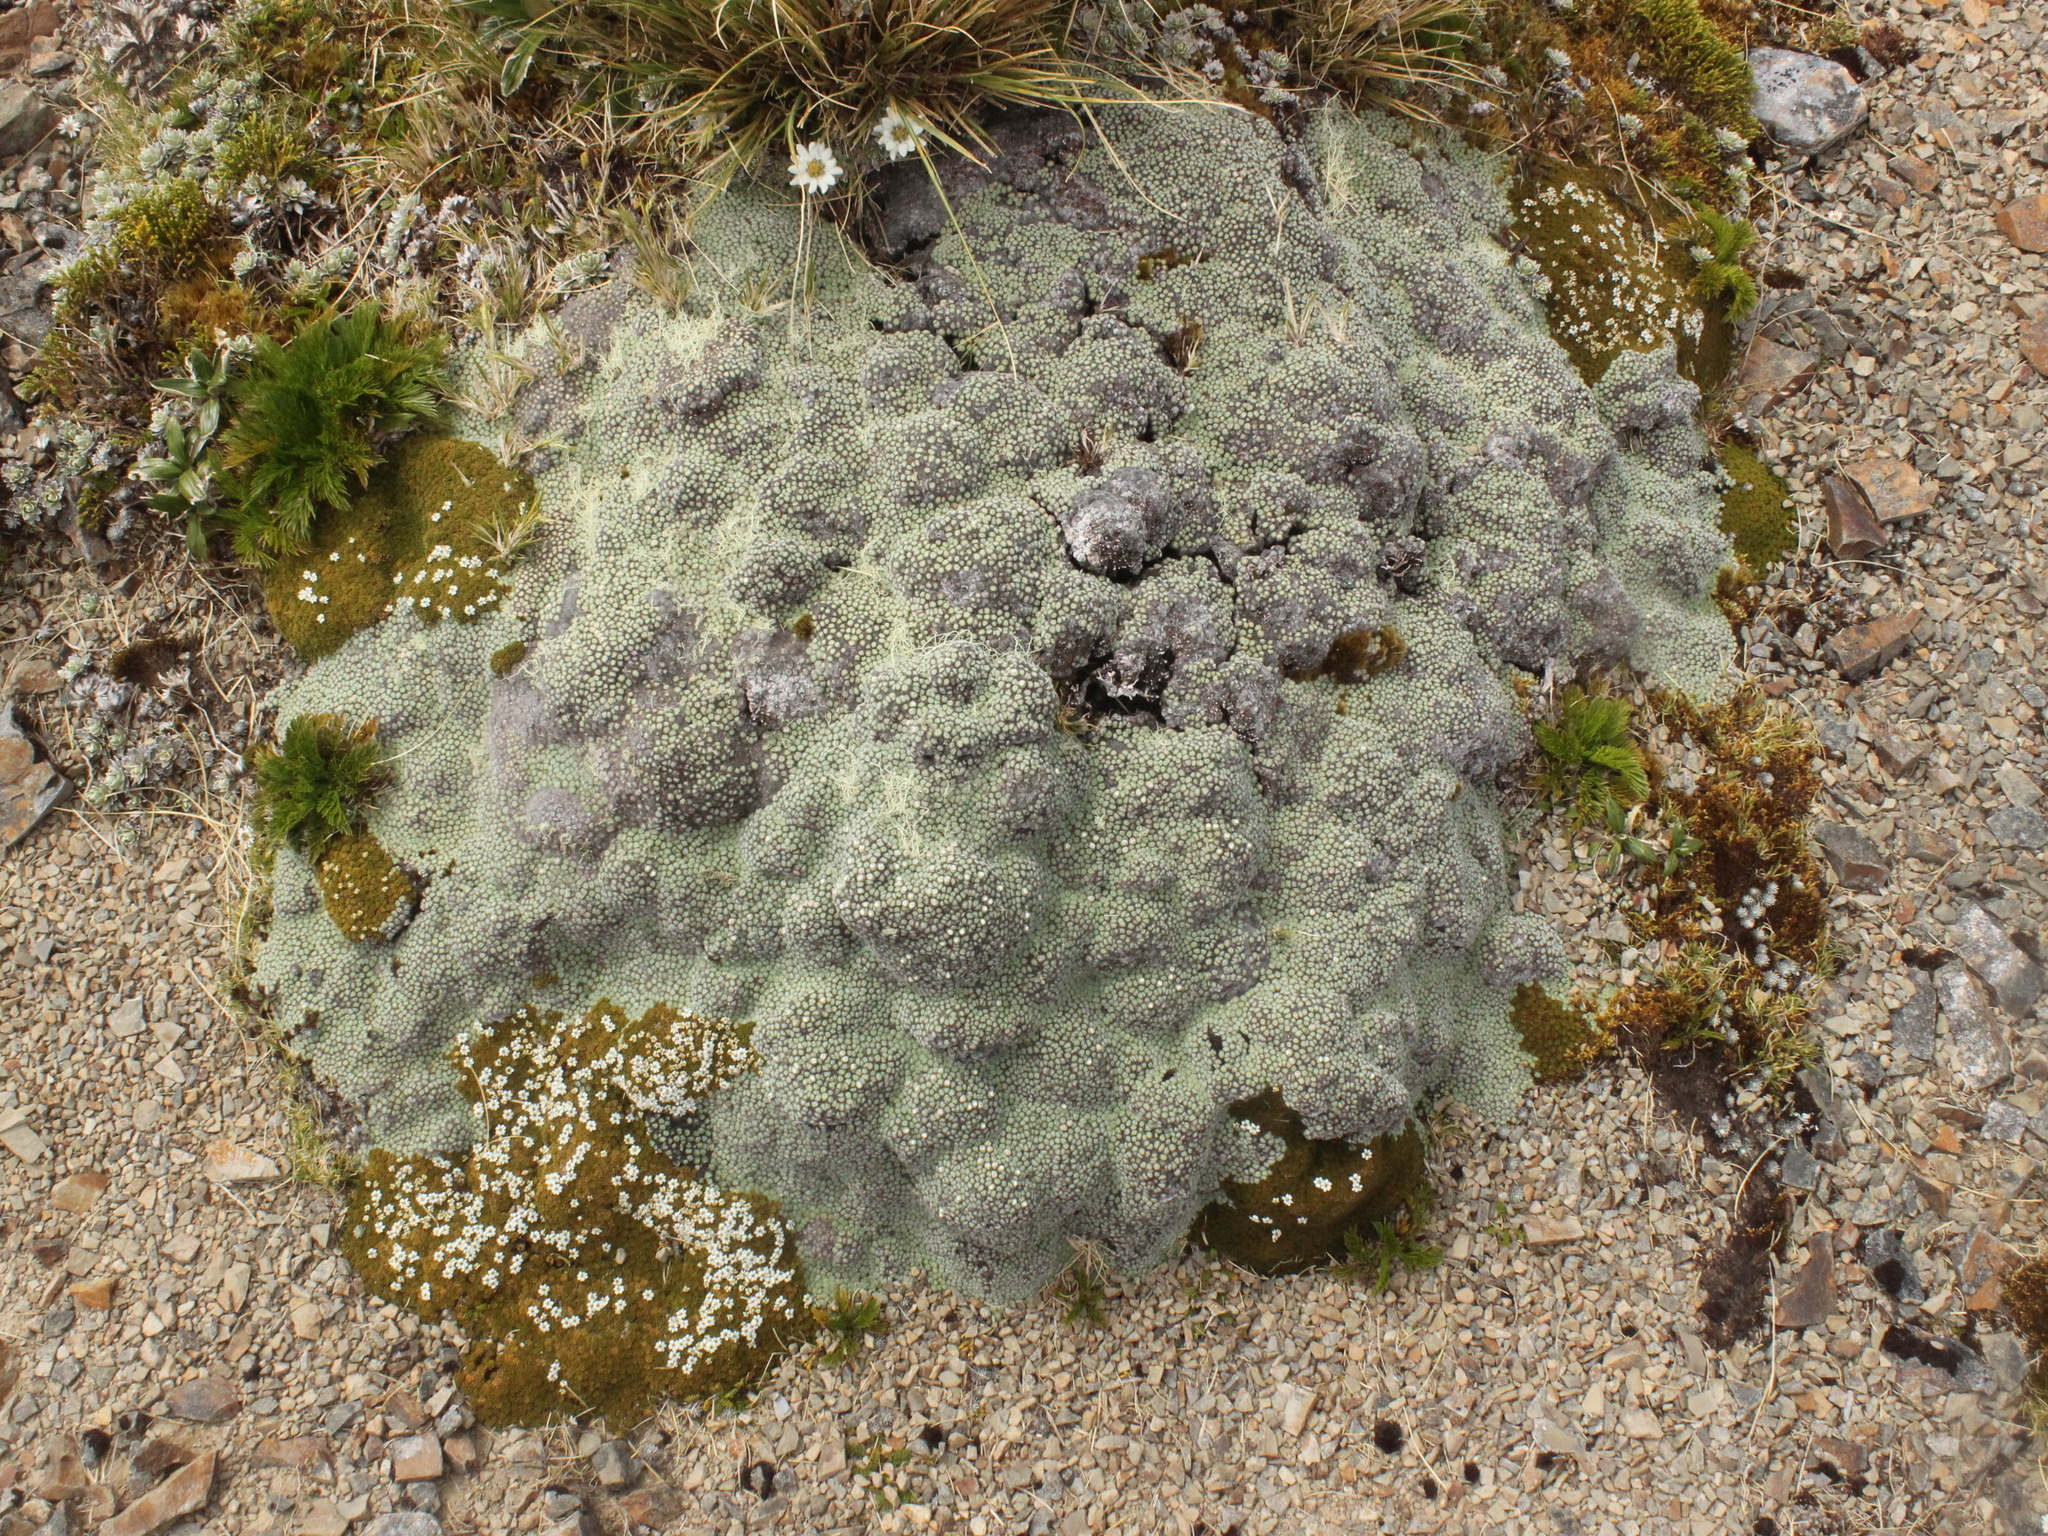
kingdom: Plantae
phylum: Tracheophyta
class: Magnoliopsida
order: Asterales
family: Asteraceae
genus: Raoulia
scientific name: Raoulia rubra
